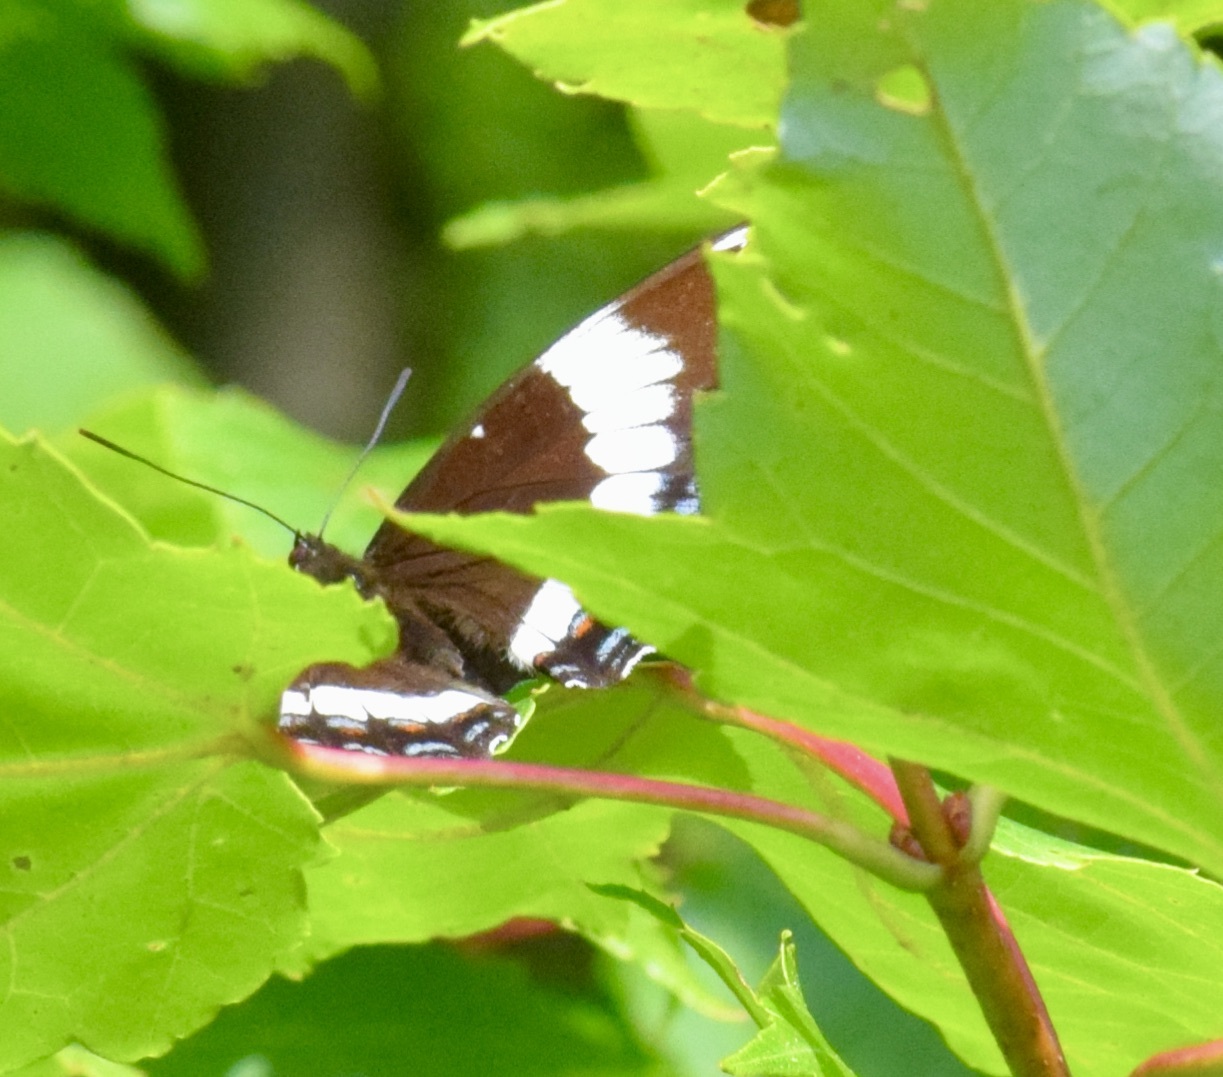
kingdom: Animalia
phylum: Arthropoda
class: Insecta
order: Lepidoptera
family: Nymphalidae
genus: Limenitis
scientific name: Limenitis arthemis
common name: Red-spotted admiral
